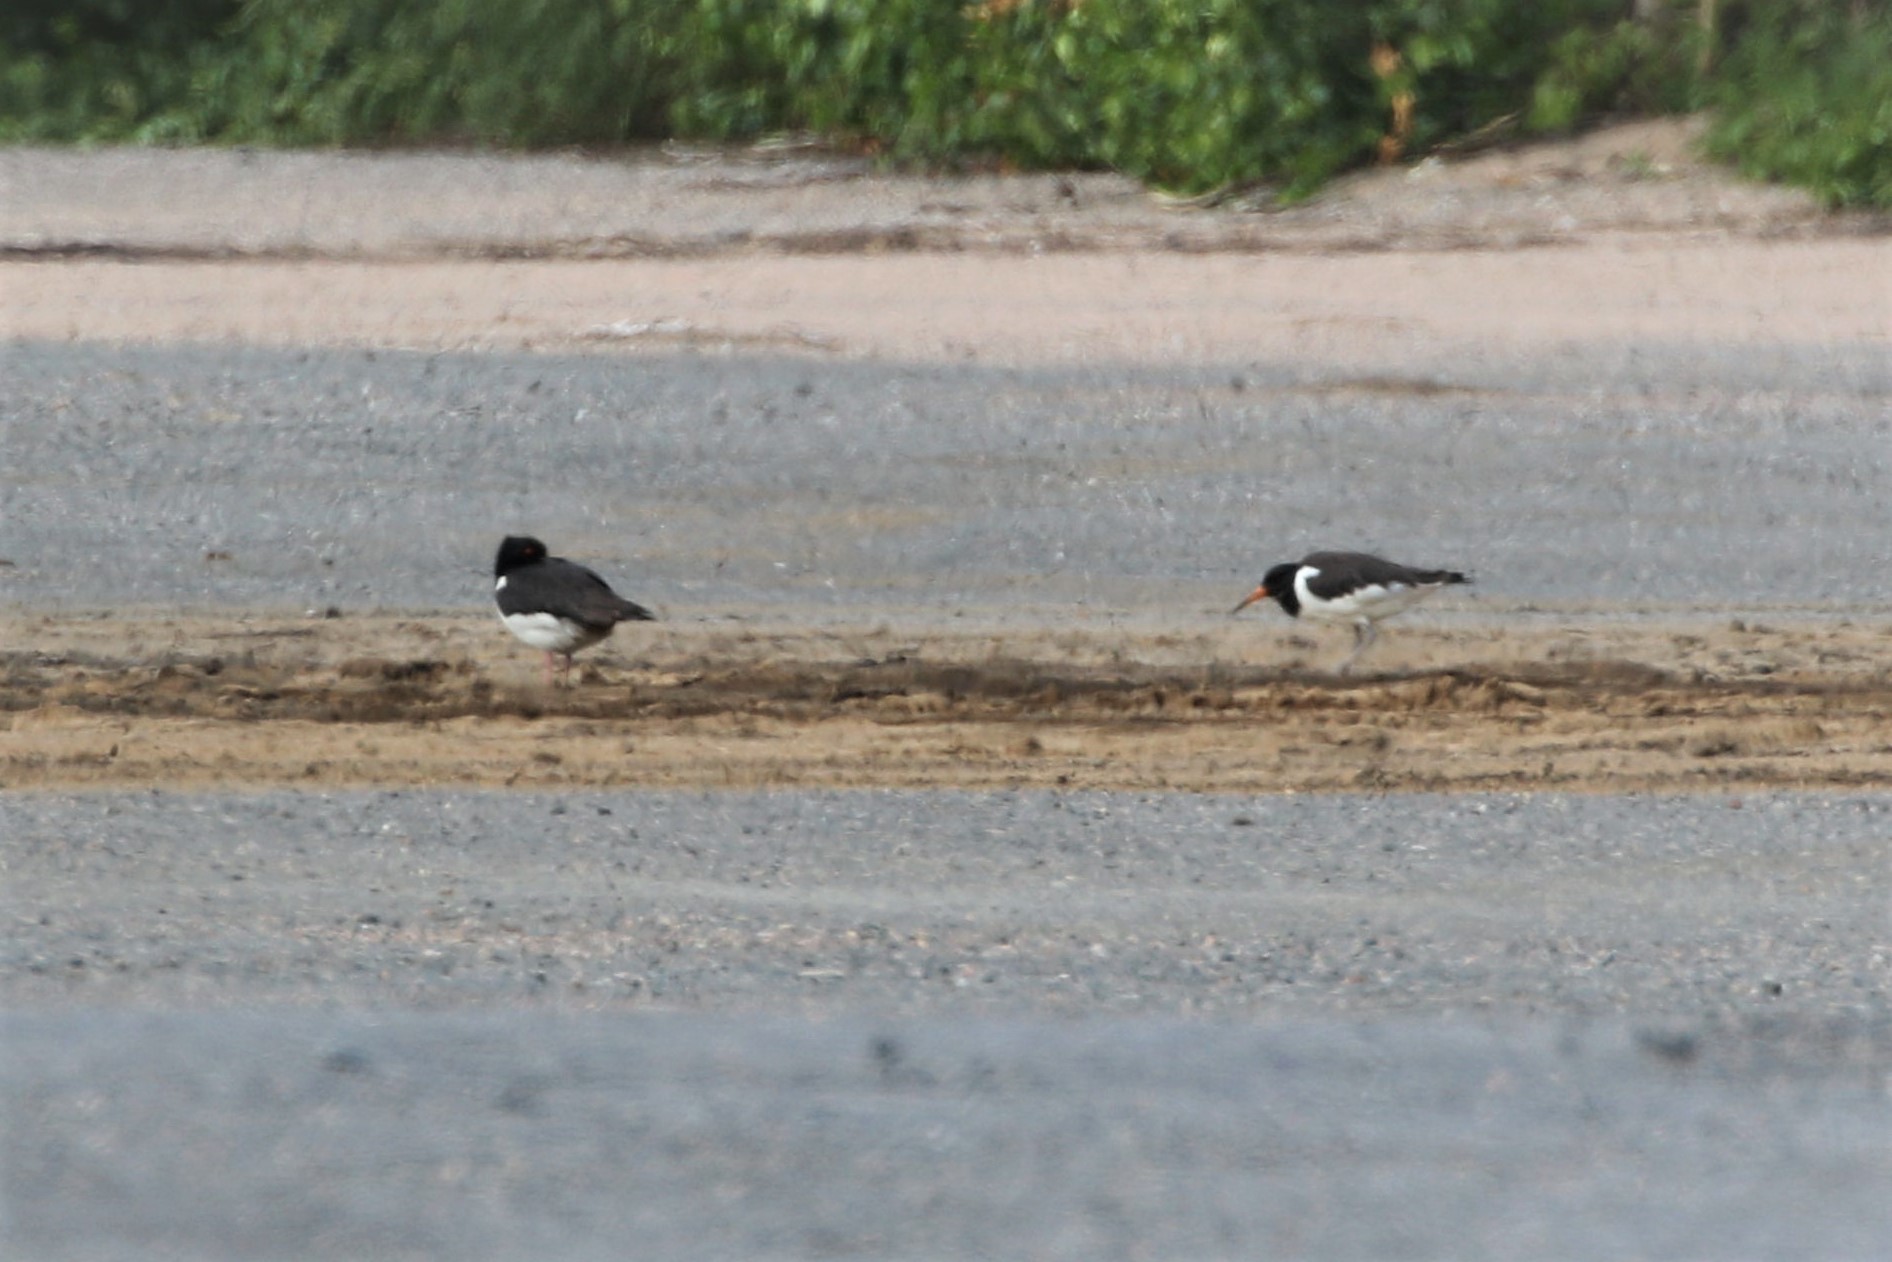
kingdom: Animalia
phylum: Chordata
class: Aves
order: Charadriiformes
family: Haematopodidae
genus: Haematopus
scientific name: Haematopus ostralegus
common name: Eurasian oystercatcher
